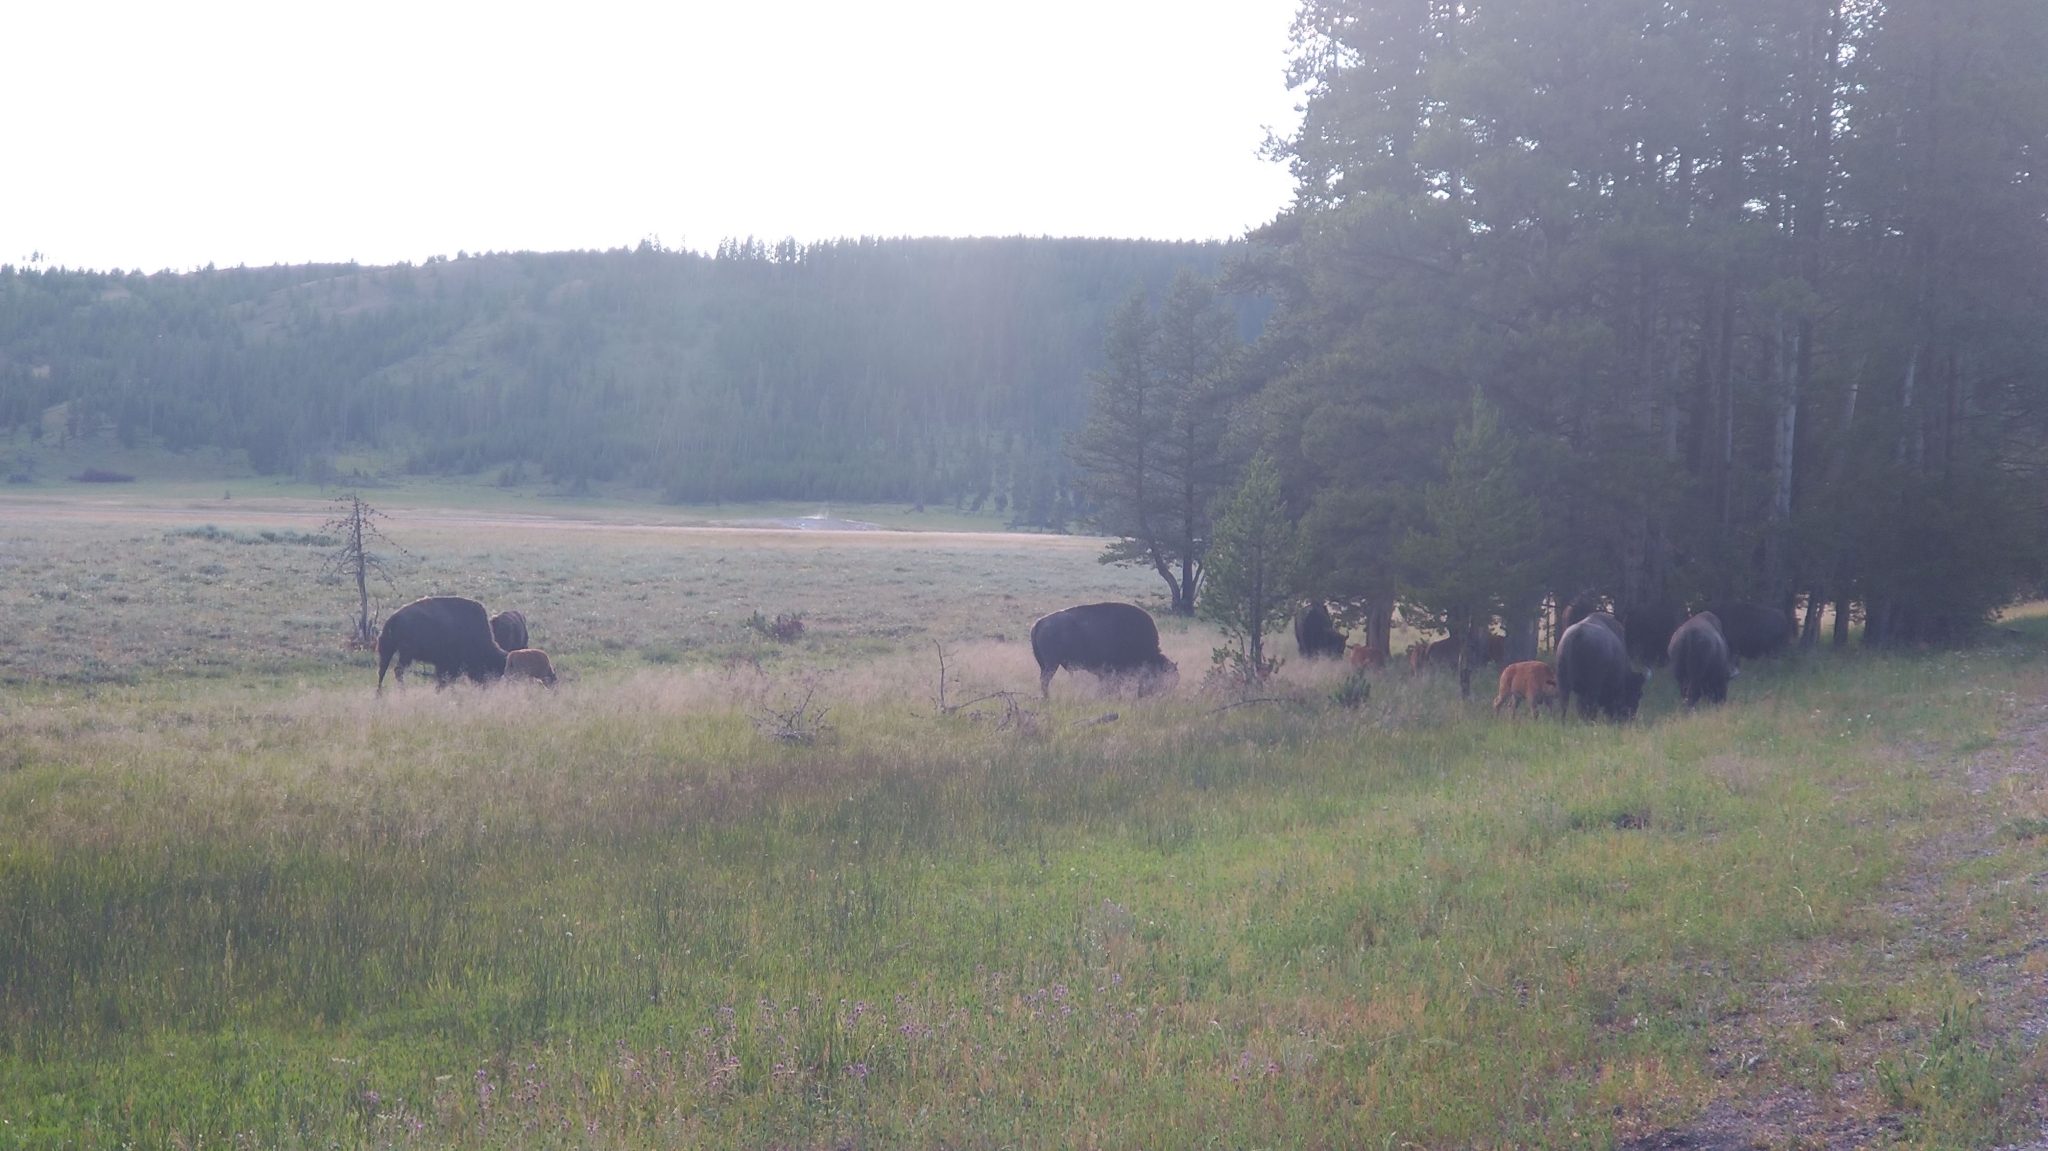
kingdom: Animalia
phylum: Chordata
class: Mammalia
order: Artiodactyla
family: Bovidae
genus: Bison
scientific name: Bison bison
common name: American bison
